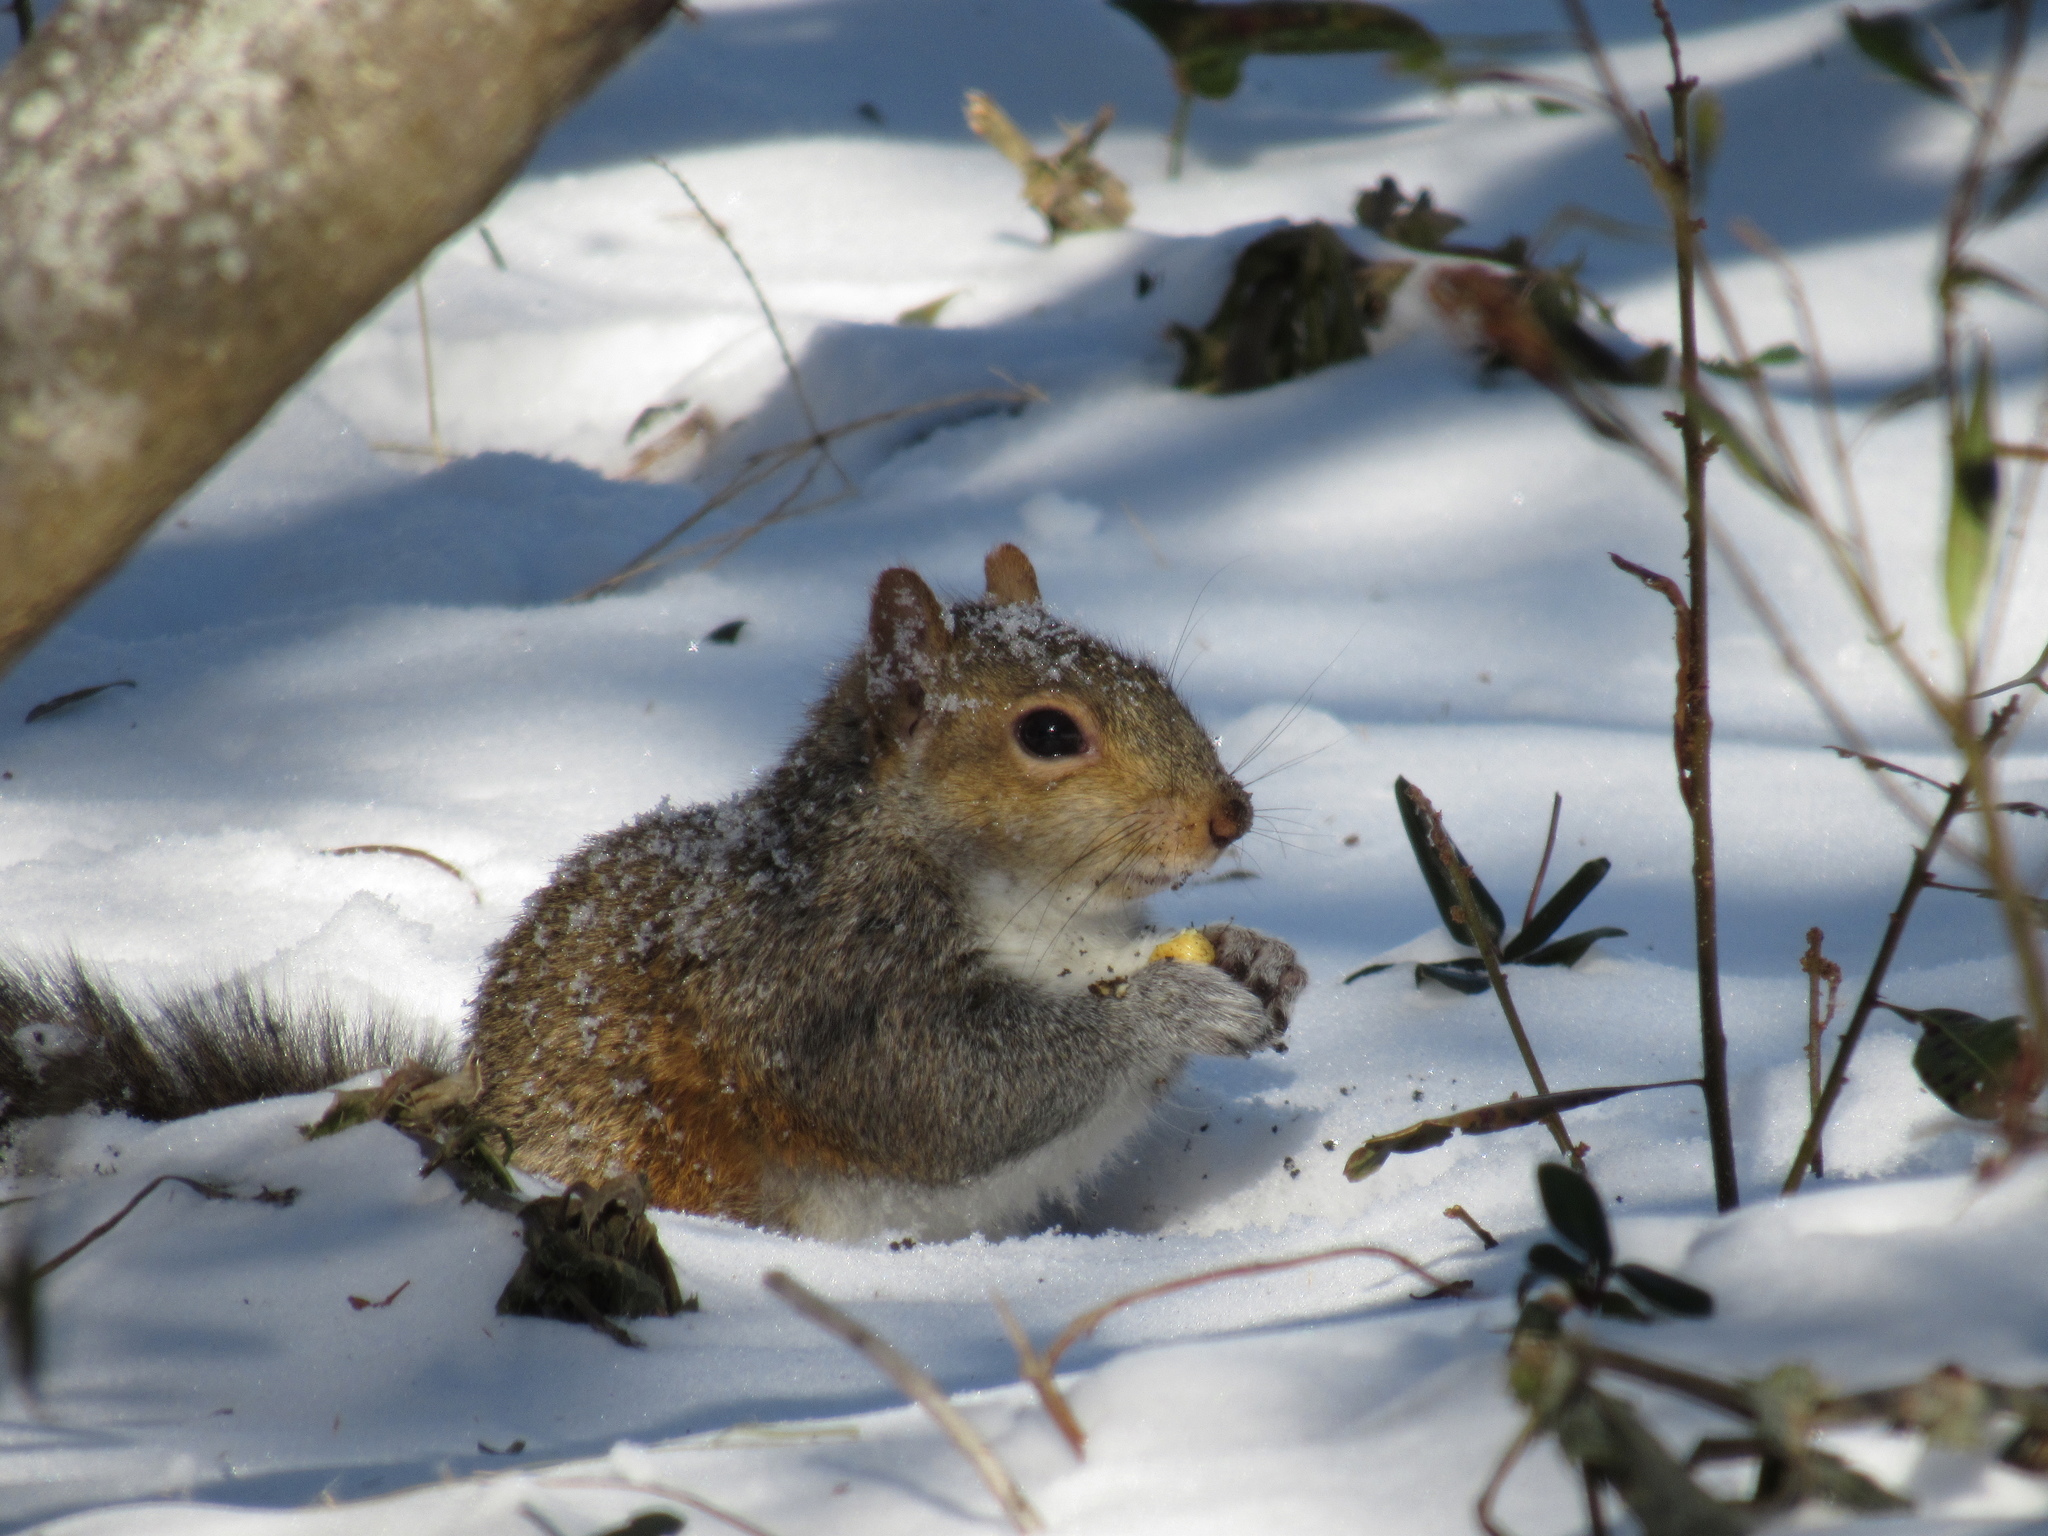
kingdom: Animalia
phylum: Chordata
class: Mammalia
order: Rodentia
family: Sciuridae
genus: Sciurus
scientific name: Sciurus carolinensis
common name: Eastern gray squirrel
